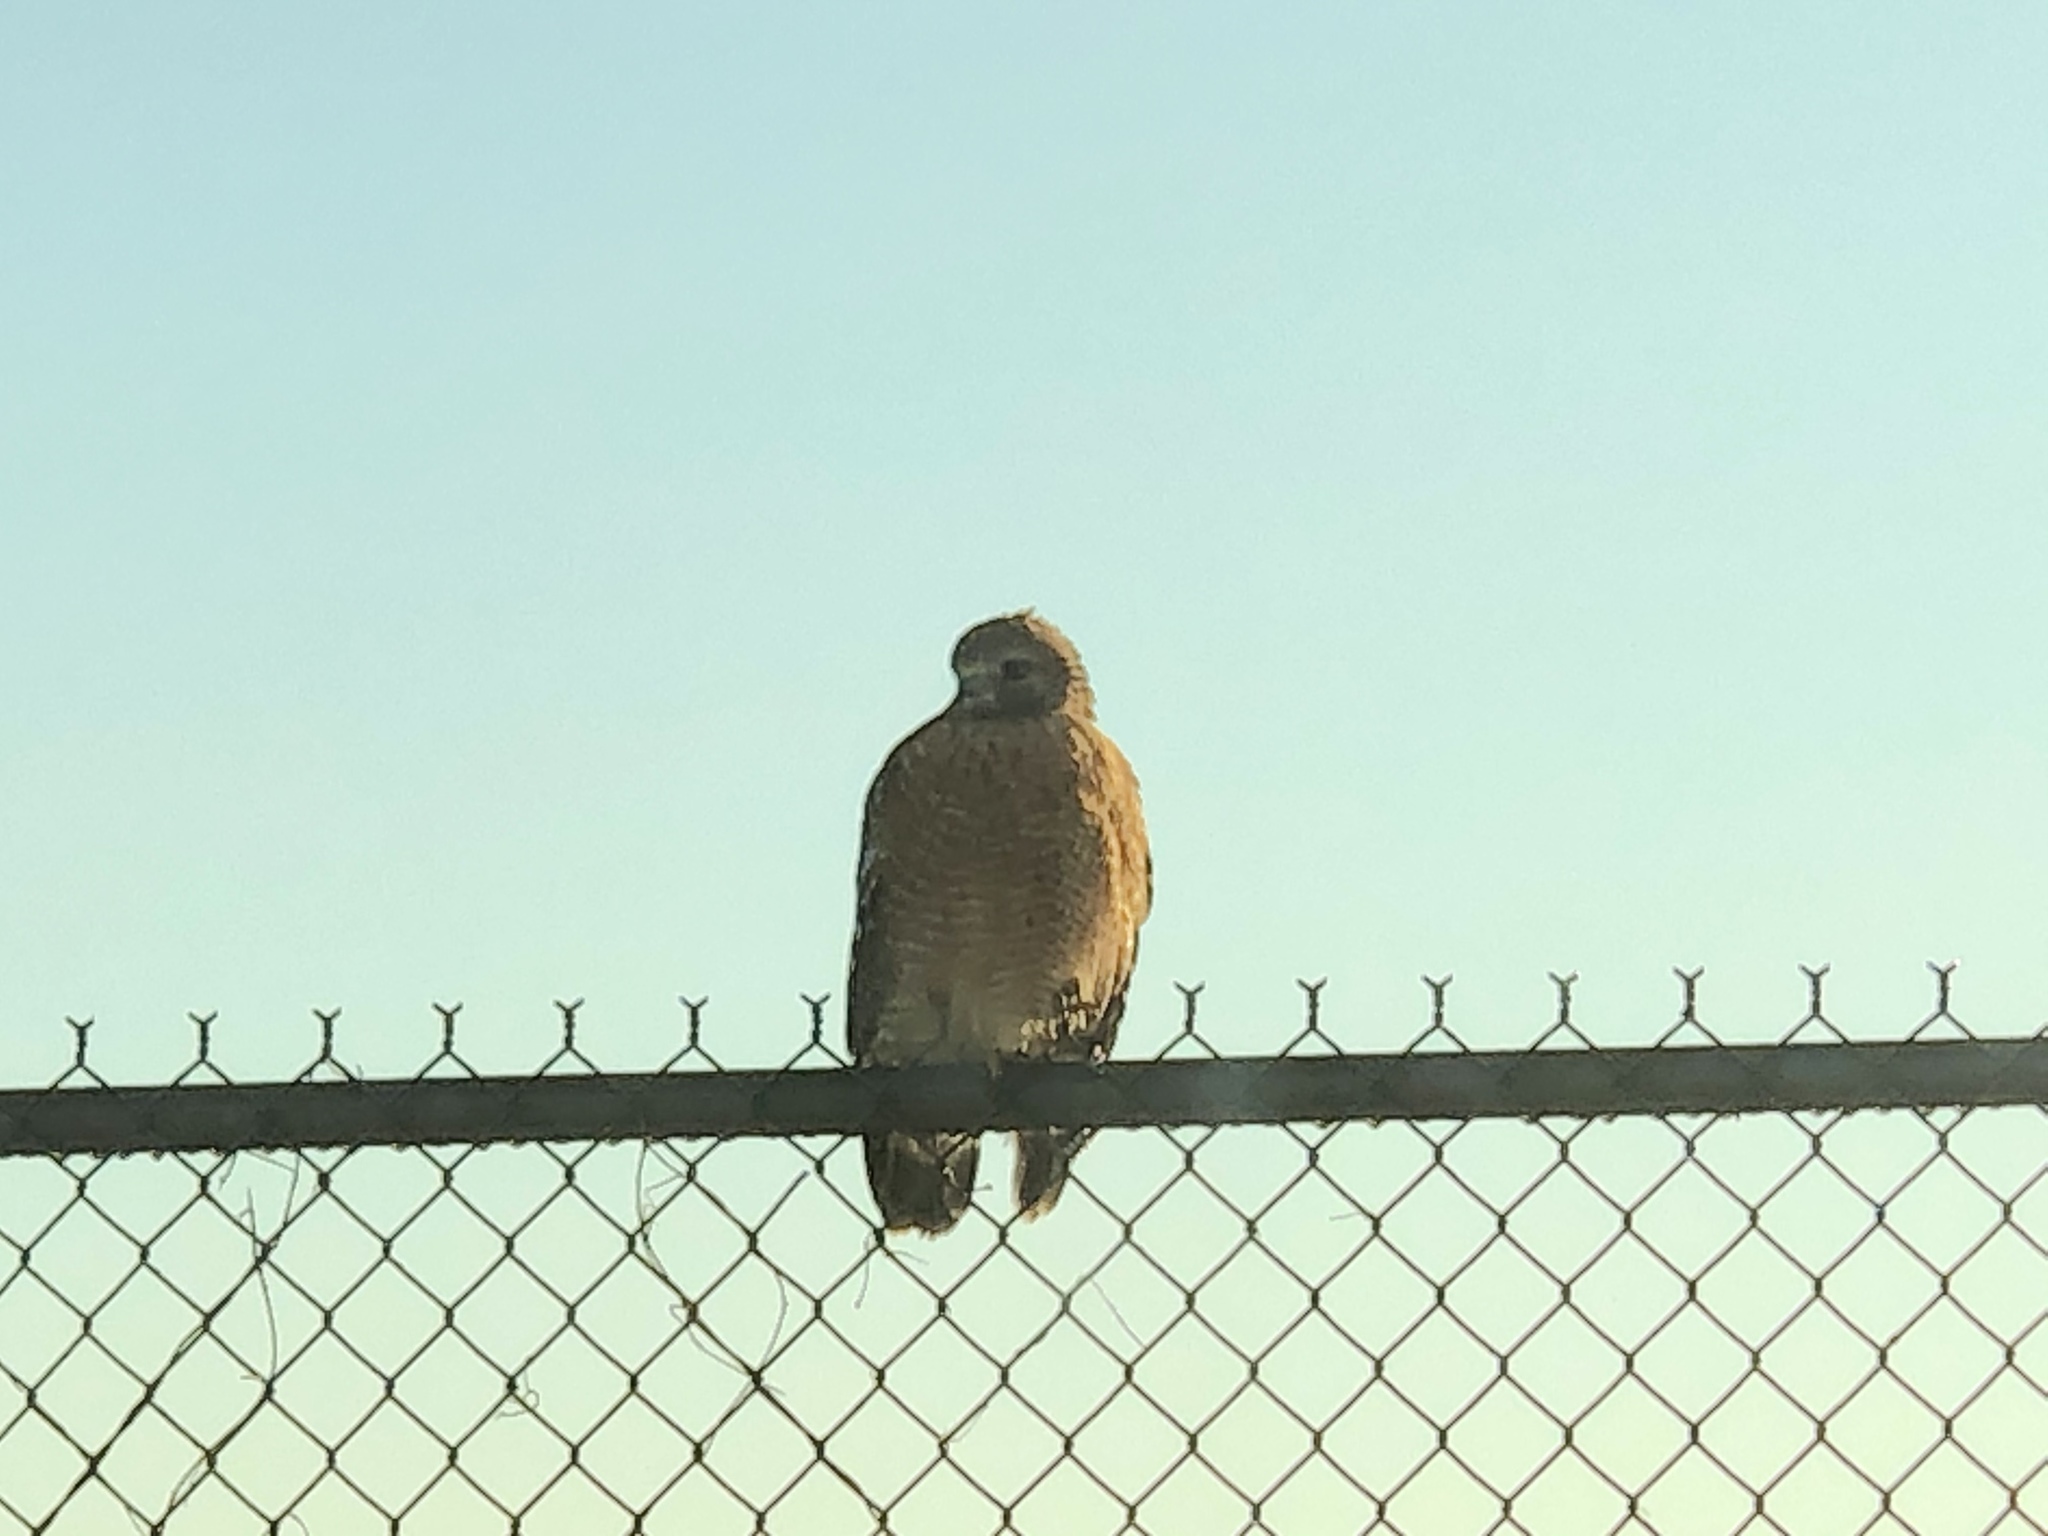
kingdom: Animalia
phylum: Chordata
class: Aves
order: Accipitriformes
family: Accipitridae
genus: Buteo
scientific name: Buteo lineatus
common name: Red-shouldered hawk
